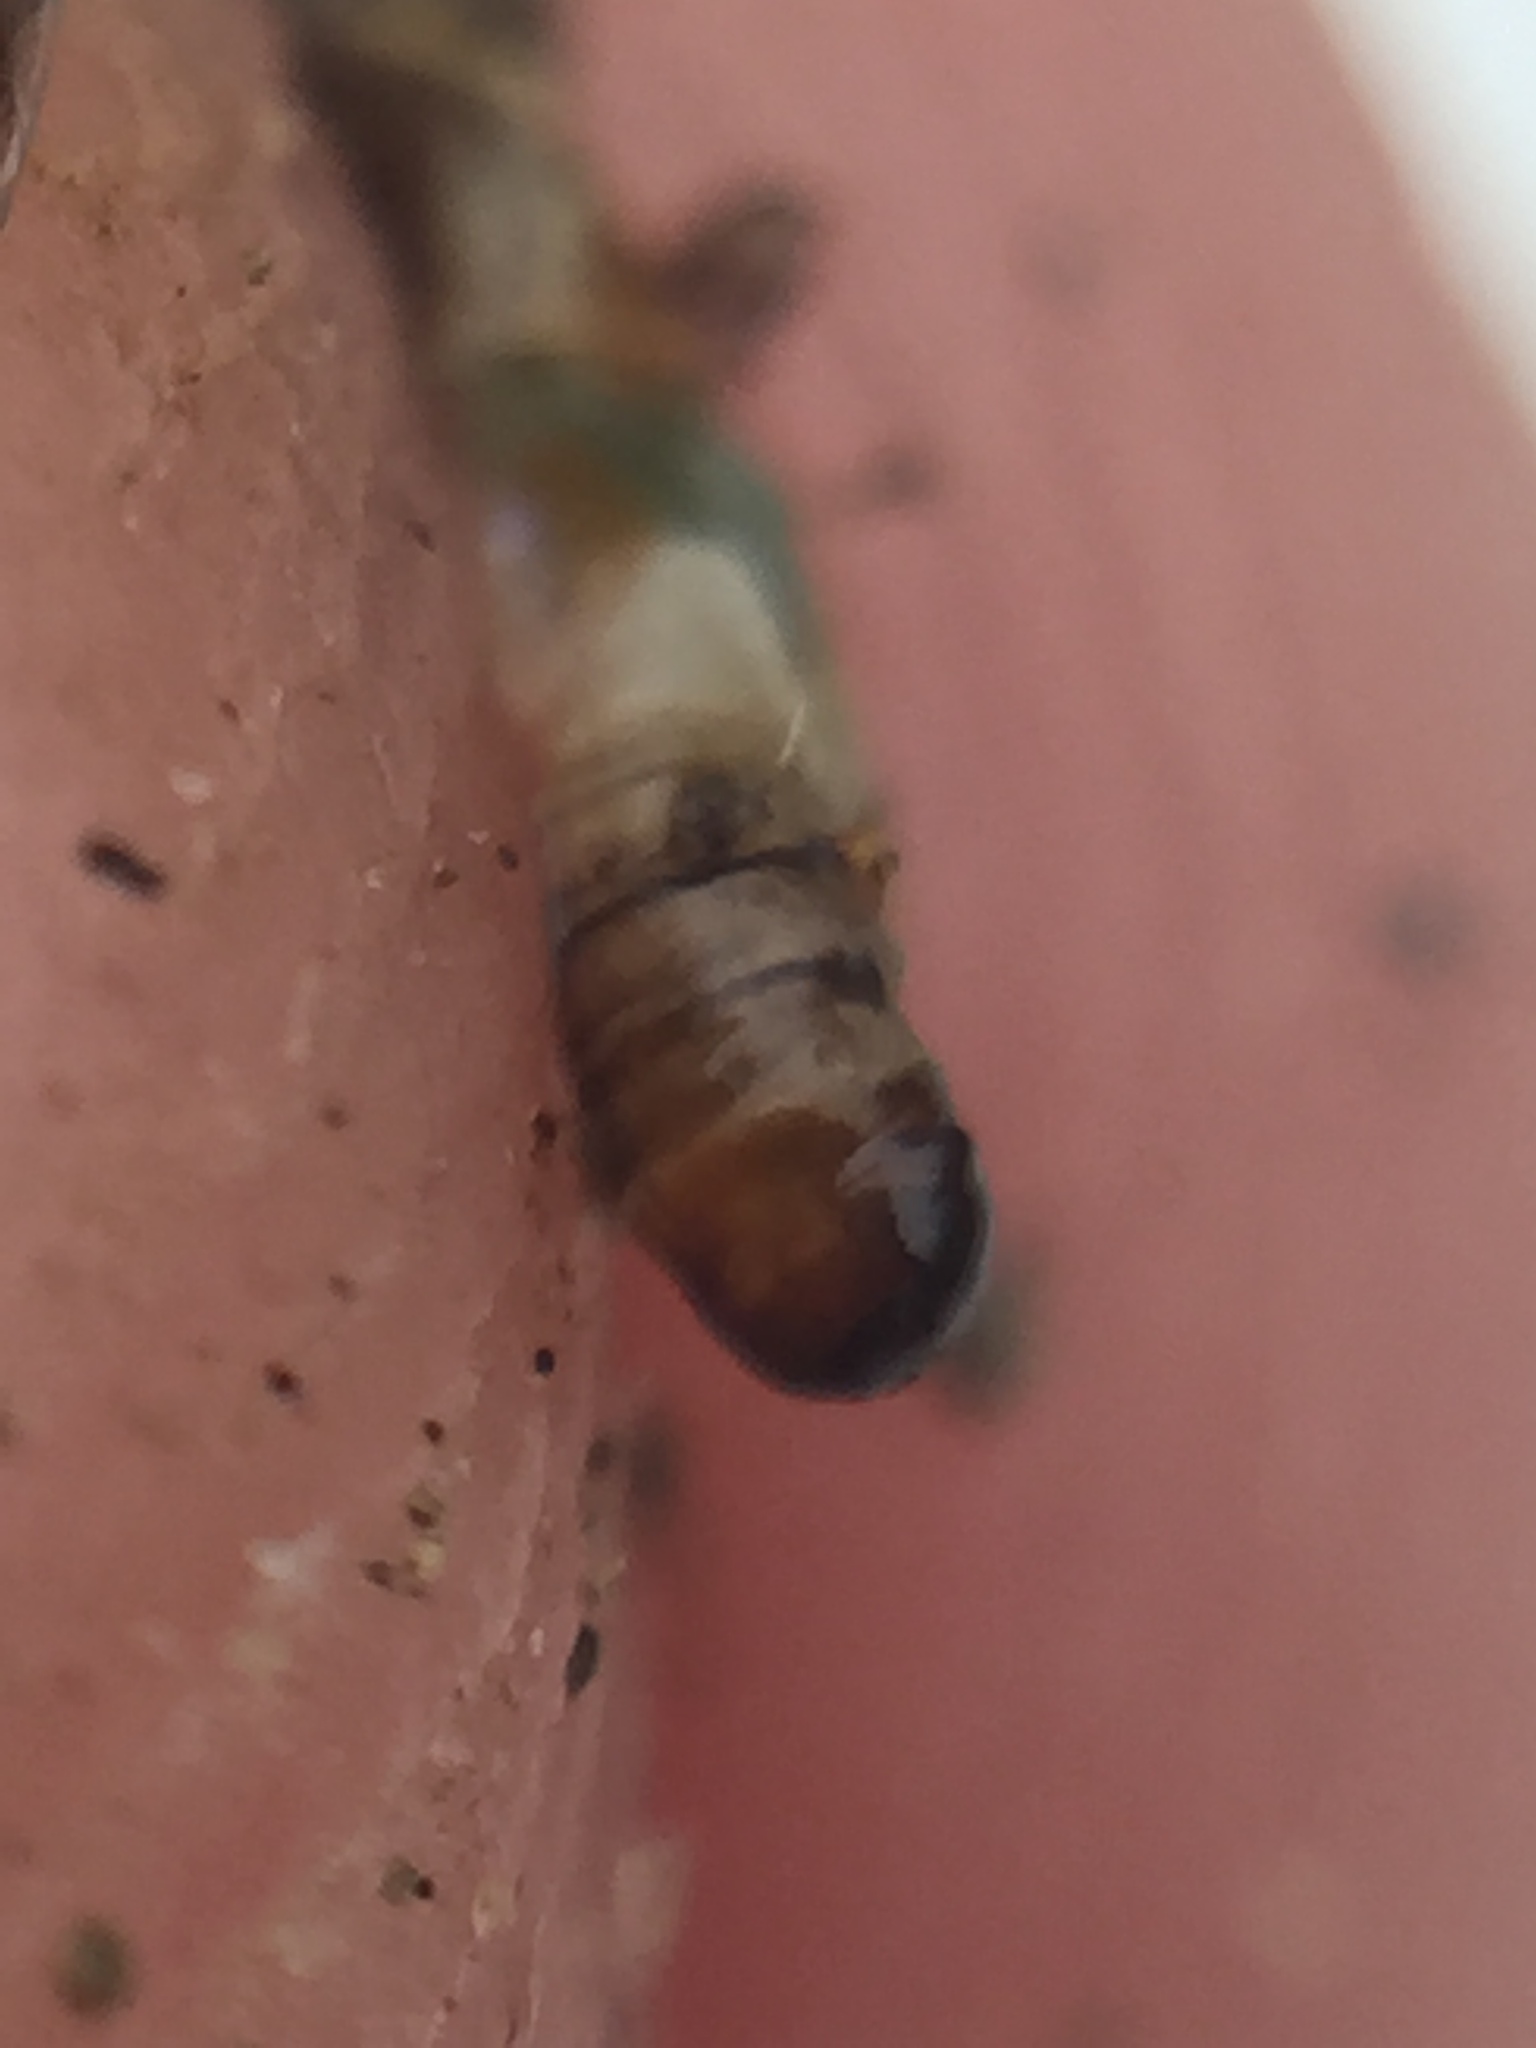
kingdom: Animalia
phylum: Arthropoda
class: Insecta
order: Strepsiptera
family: Halictophagidae
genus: Coriophagus
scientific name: Coriophagus casui
